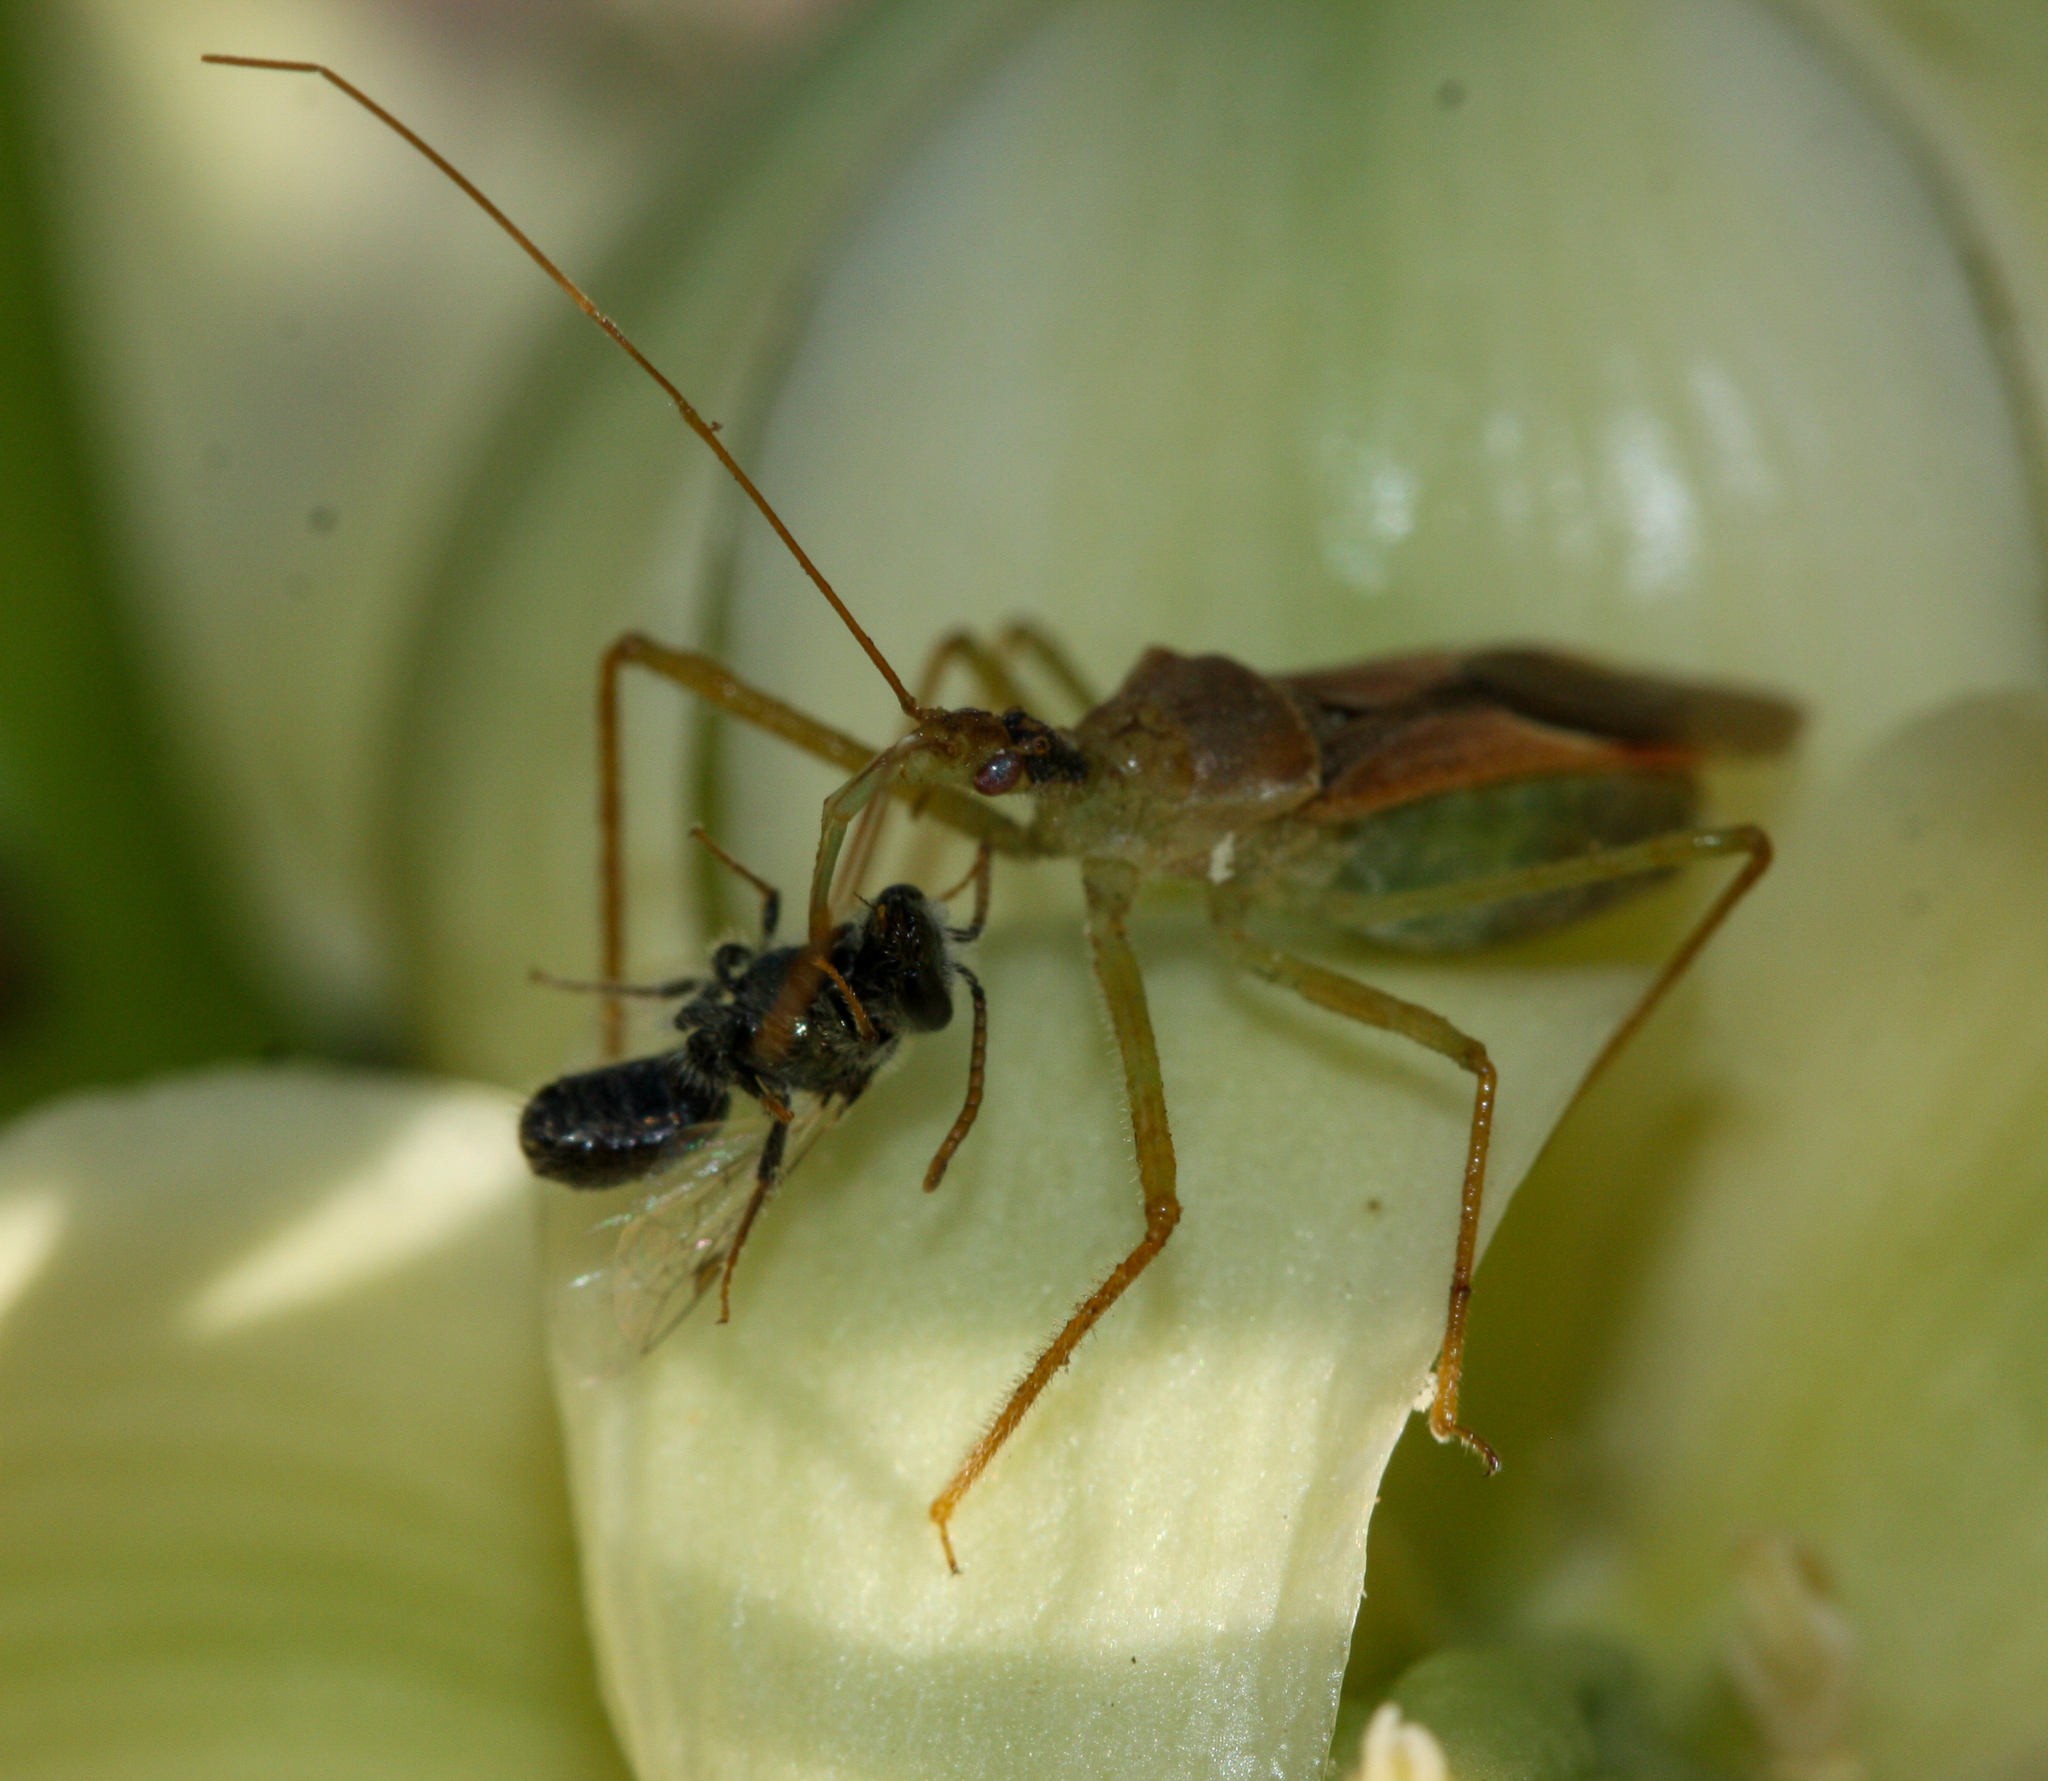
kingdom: Animalia
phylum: Arthropoda
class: Insecta
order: Hemiptera
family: Reduviidae
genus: Zelus
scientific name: Zelus renardii
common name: Assassin bug
